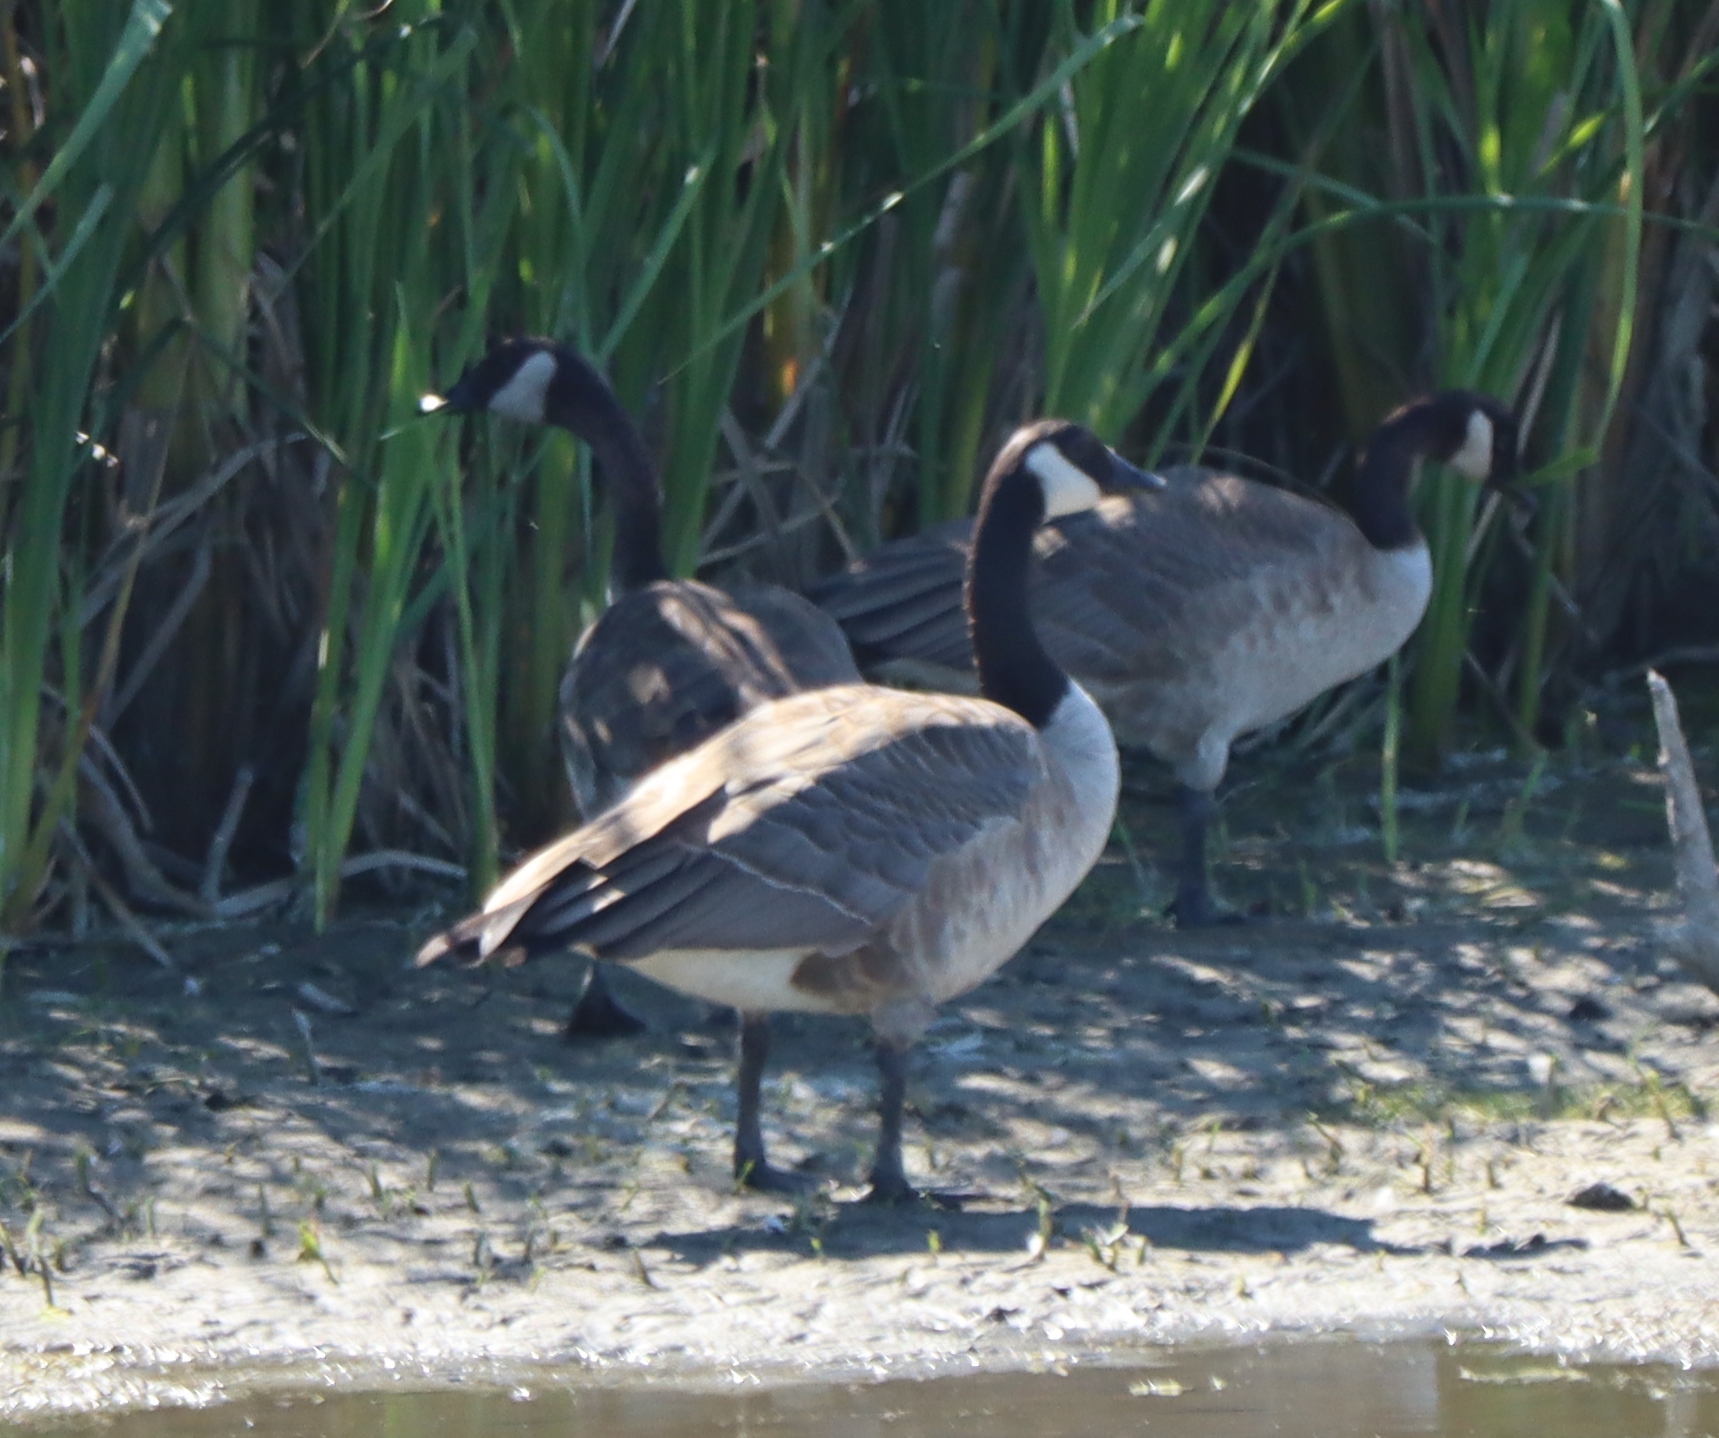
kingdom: Animalia
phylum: Chordata
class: Aves
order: Anseriformes
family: Anatidae
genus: Branta
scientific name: Branta canadensis
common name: Canada goose
